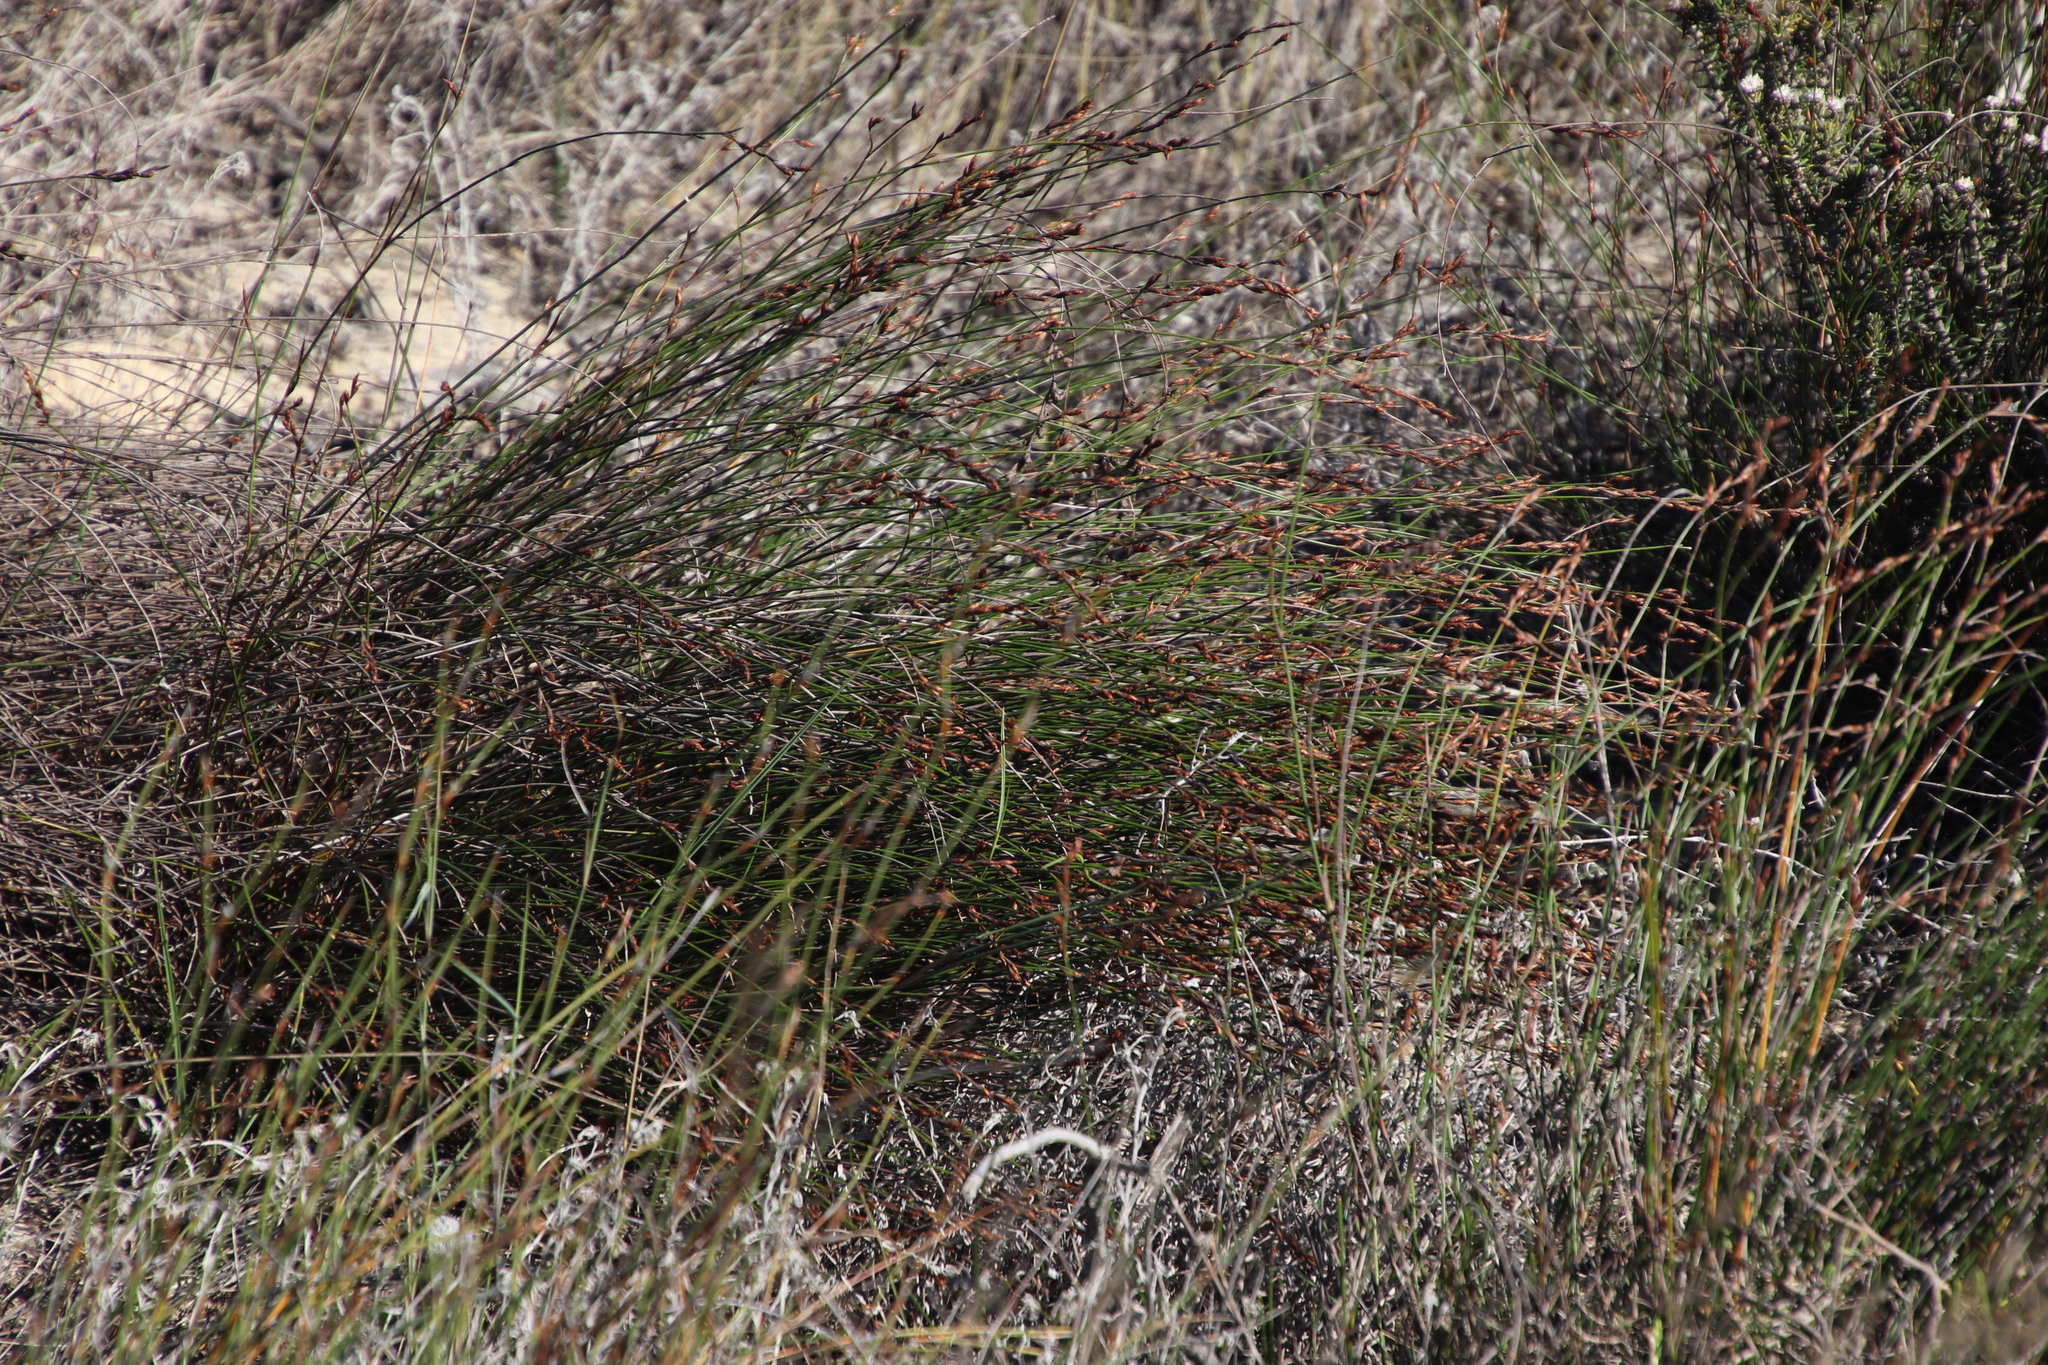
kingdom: Plantae
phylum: Tracheophyta
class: Liliopsida
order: Poales
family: Restionaceae
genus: Restio
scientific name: Restio impolitus
